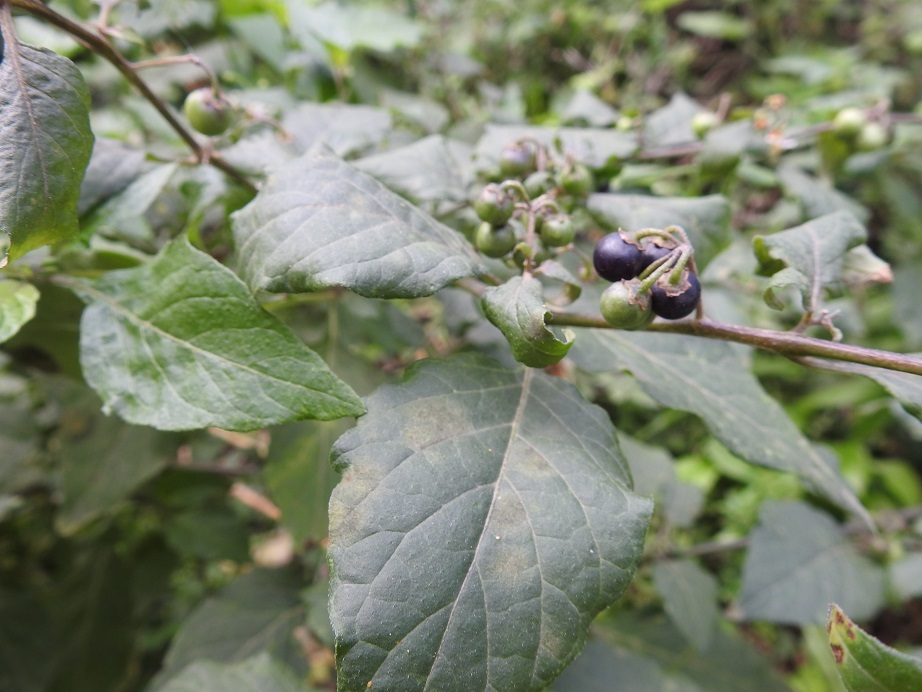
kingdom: Plantae
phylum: Tracheophyta
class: Magnoliopsida
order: Solanales
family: Solanaceae
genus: Solanum
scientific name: Solanum nigrum
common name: Black nightshade
